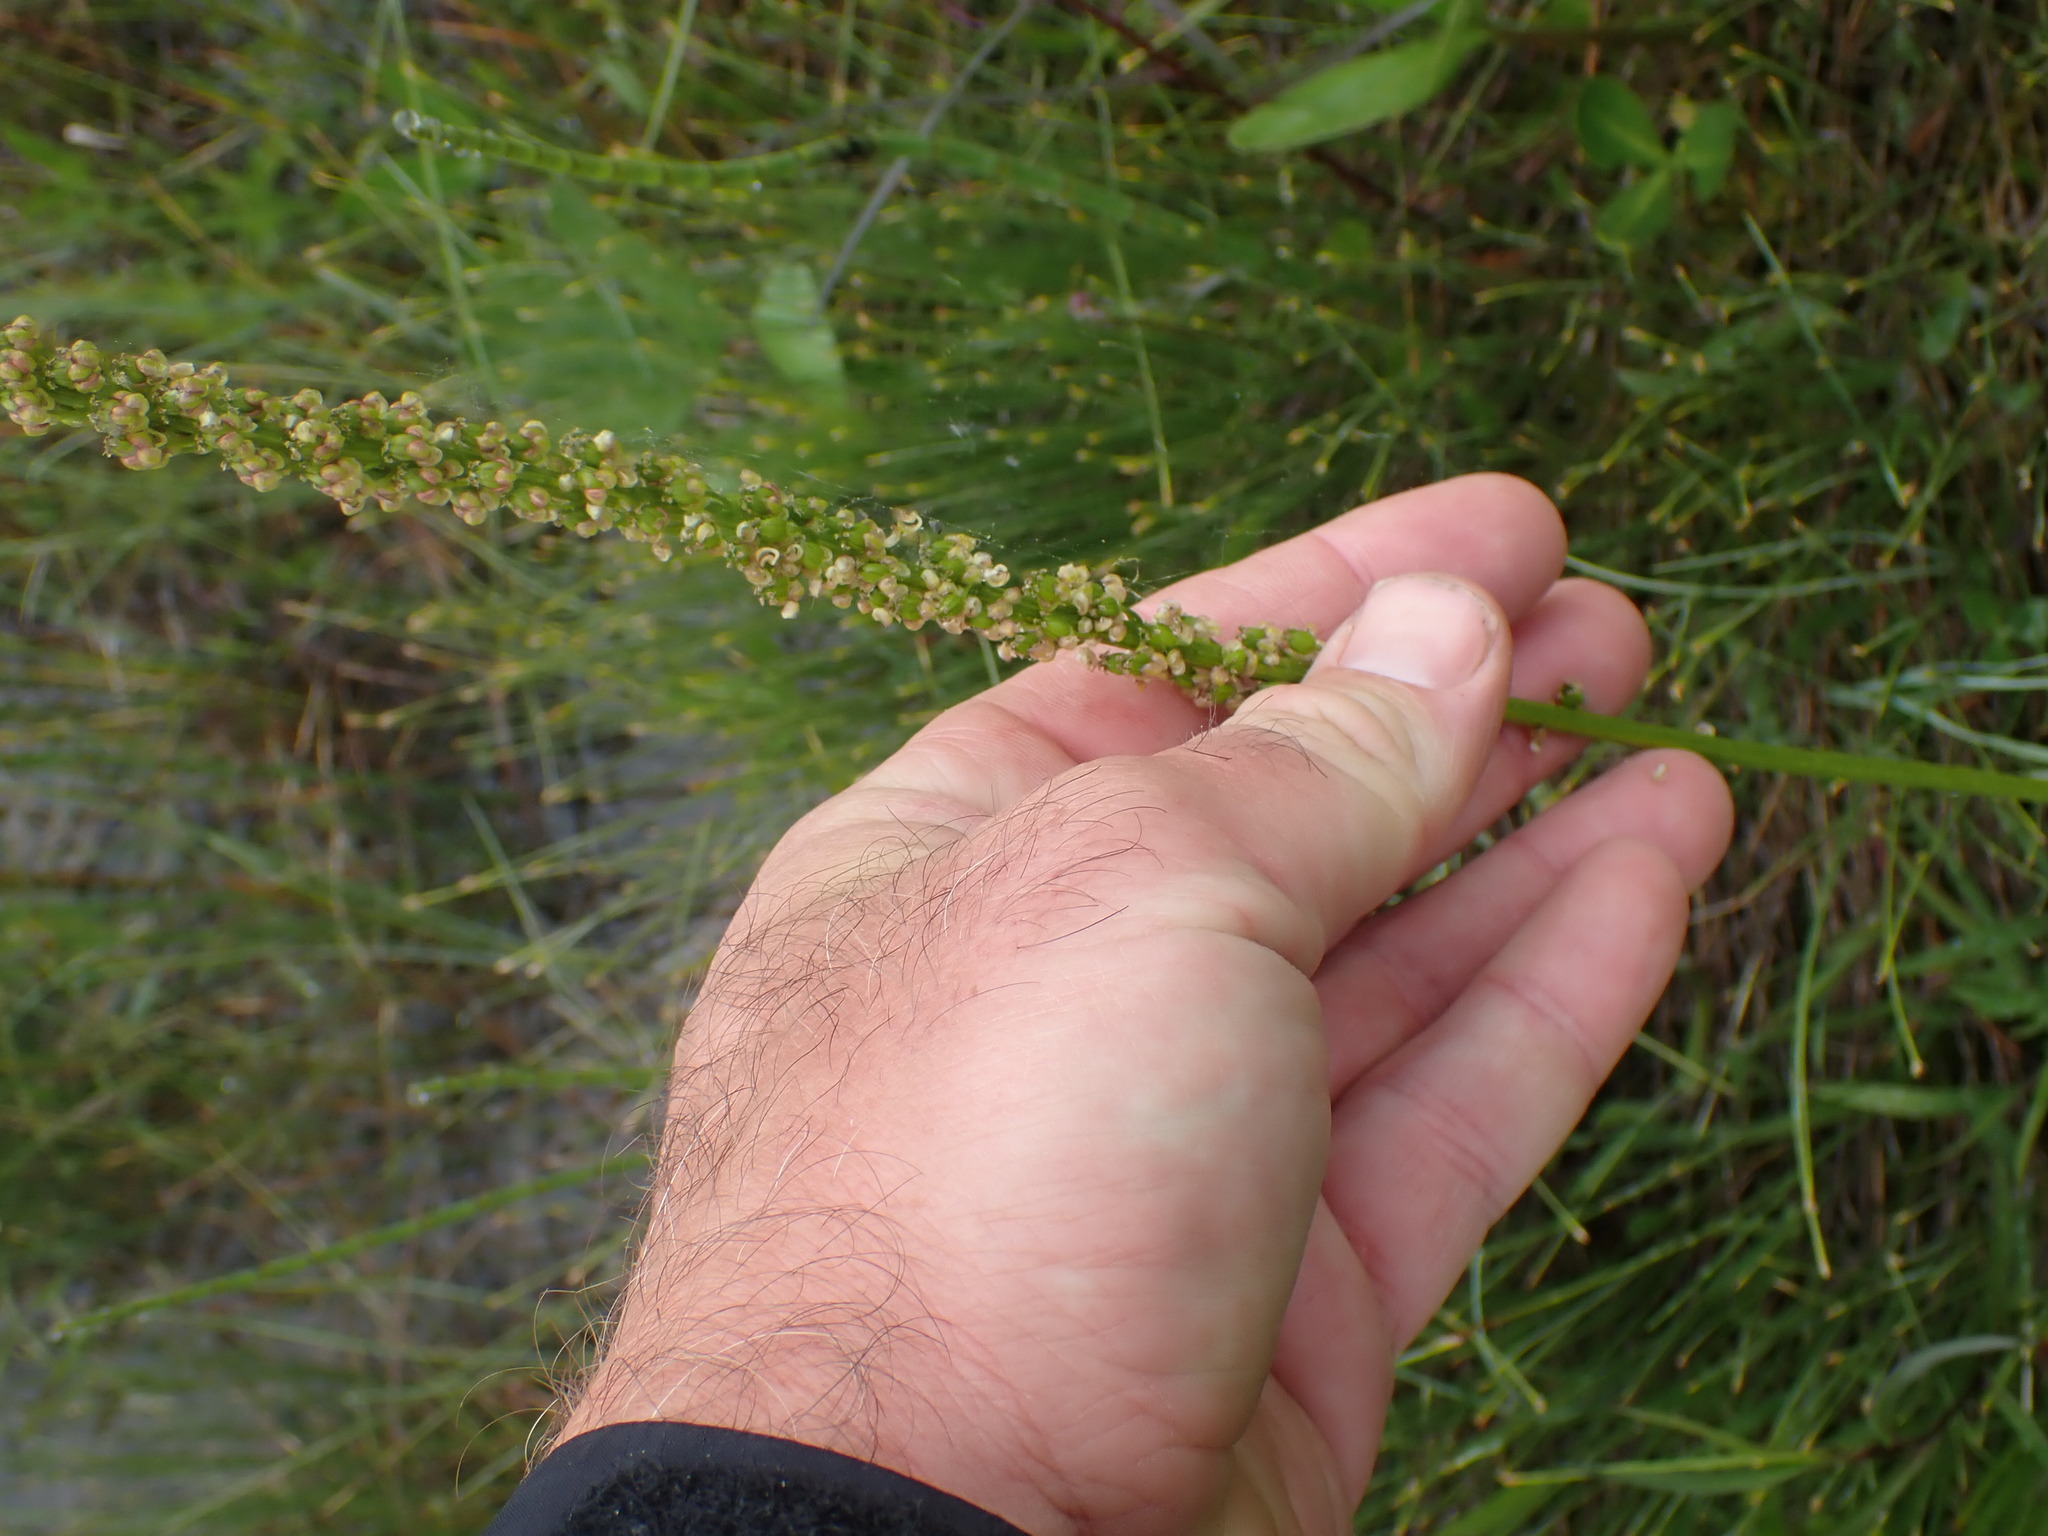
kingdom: Plantae
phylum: Tracheophyta
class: Liliopsida
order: Alismatales
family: Juncaginaceae
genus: Triglochin
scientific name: Triglochin maritima
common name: Sea arrowgrass
